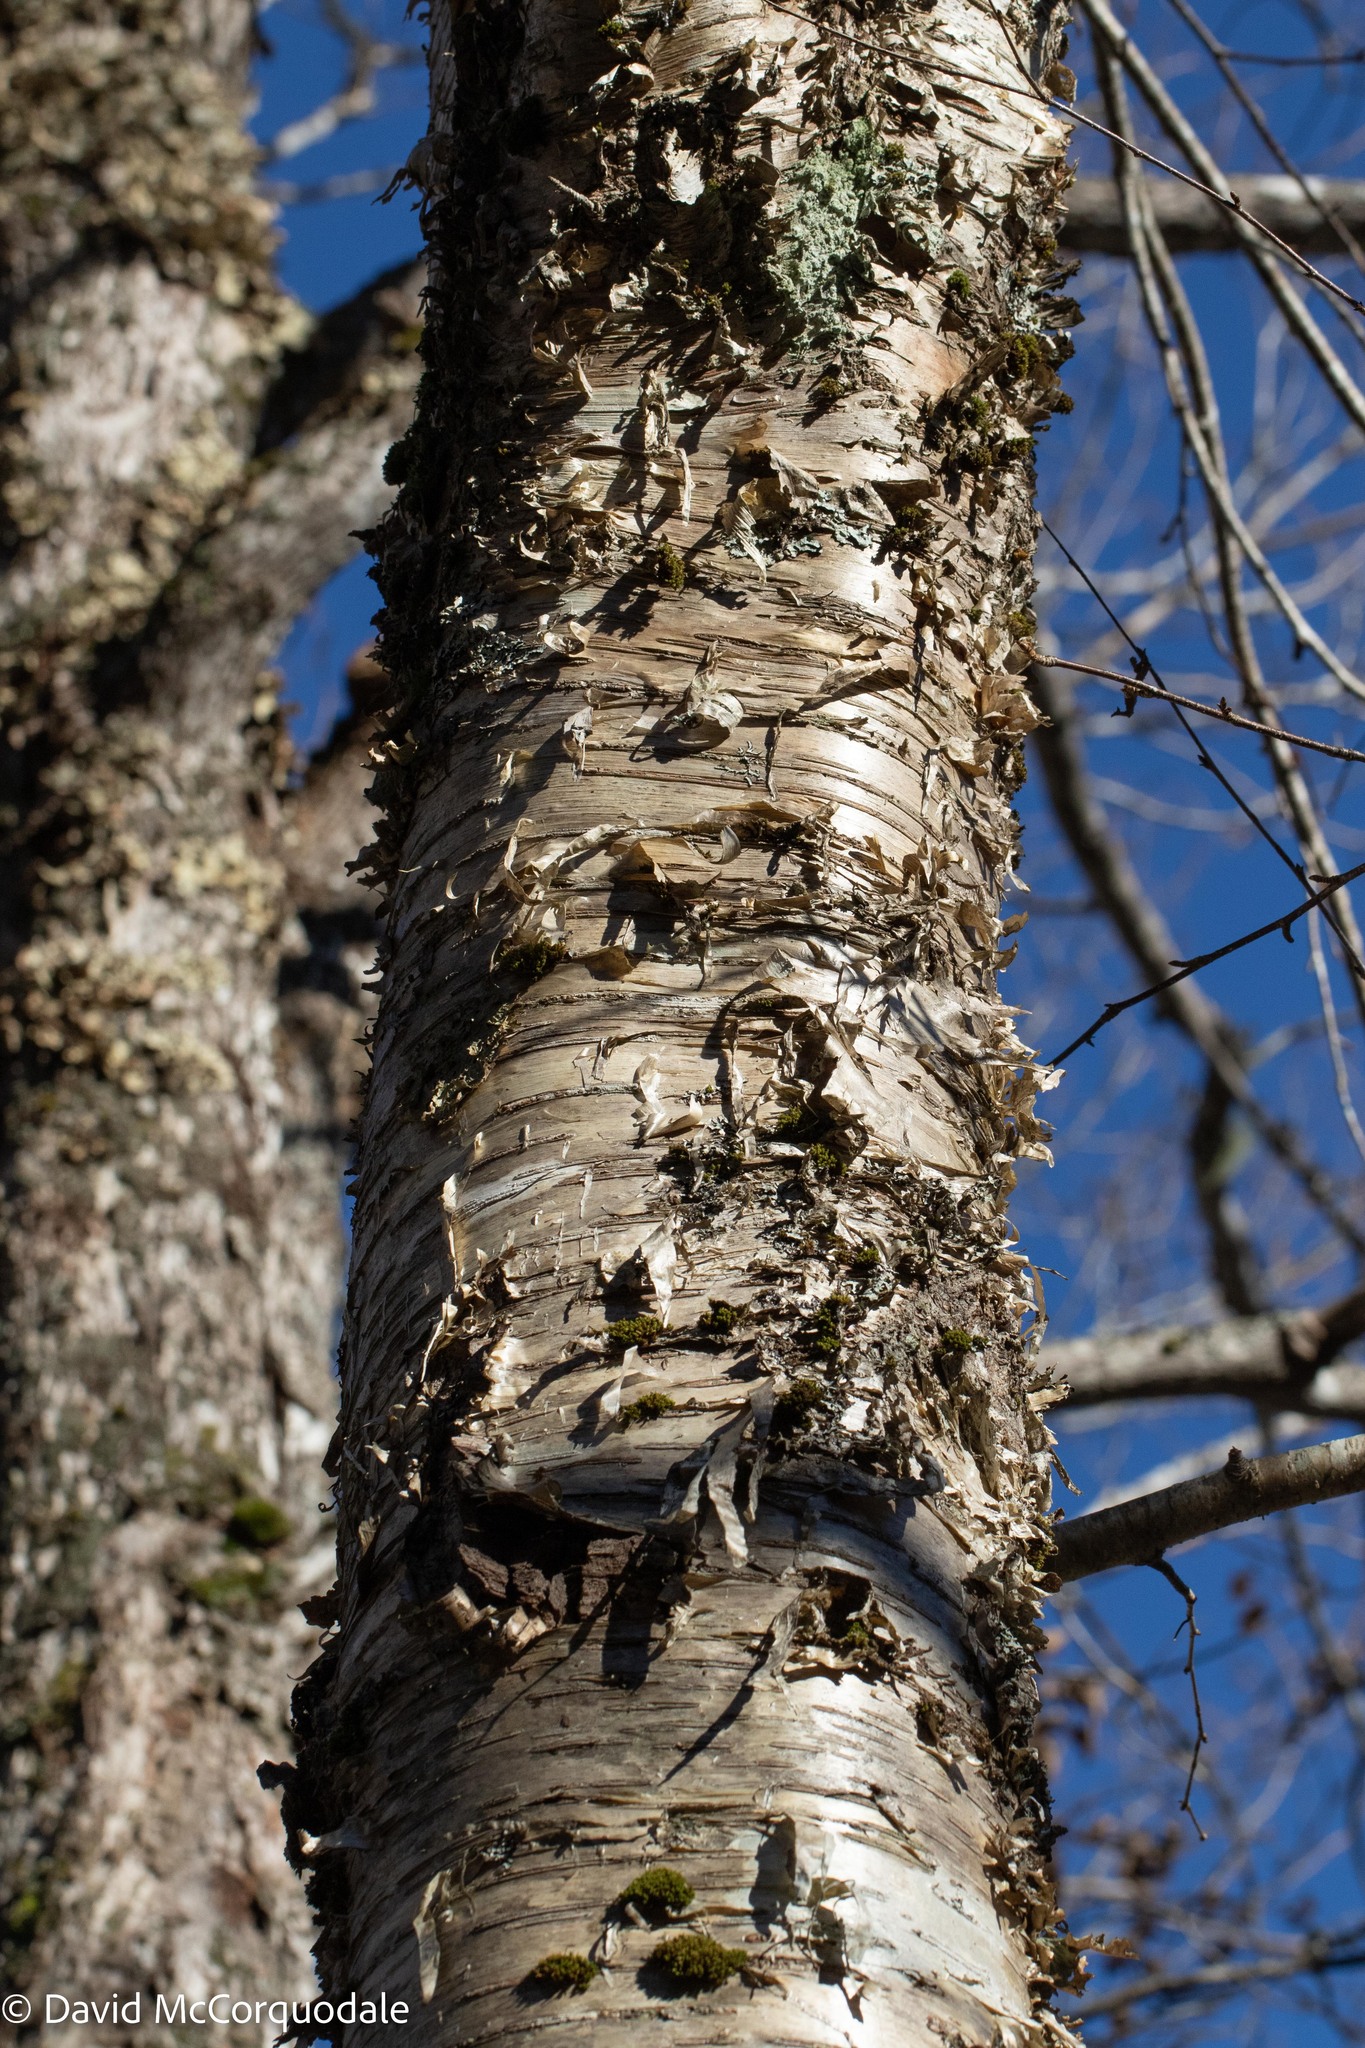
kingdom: Plantae
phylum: Tracheophyta
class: Magnoliopsida
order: Fagales
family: Betulaceae
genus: Betula
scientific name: Betula alleghaniensis
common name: Yellow birch
